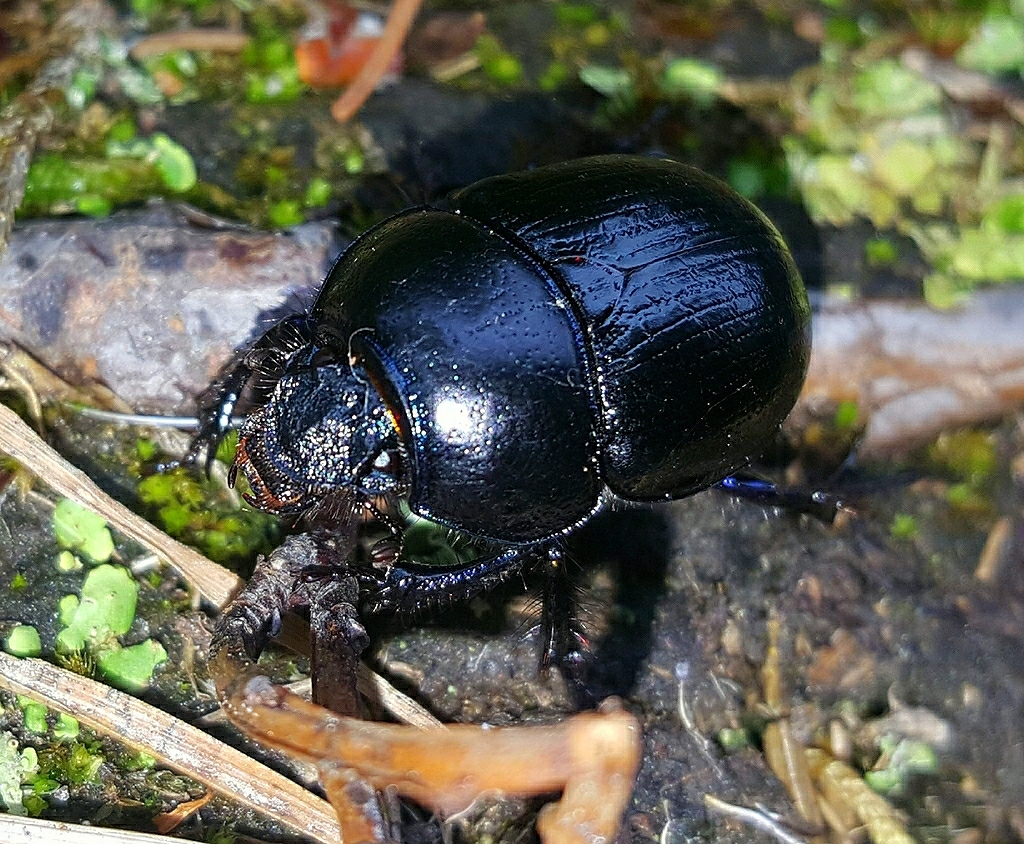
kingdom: Animalia
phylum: Arthropoda
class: Insecta
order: Coleoptera
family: Geotrupidae
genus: Anoplotrupes
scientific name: Anoplotrupes stercorosus
